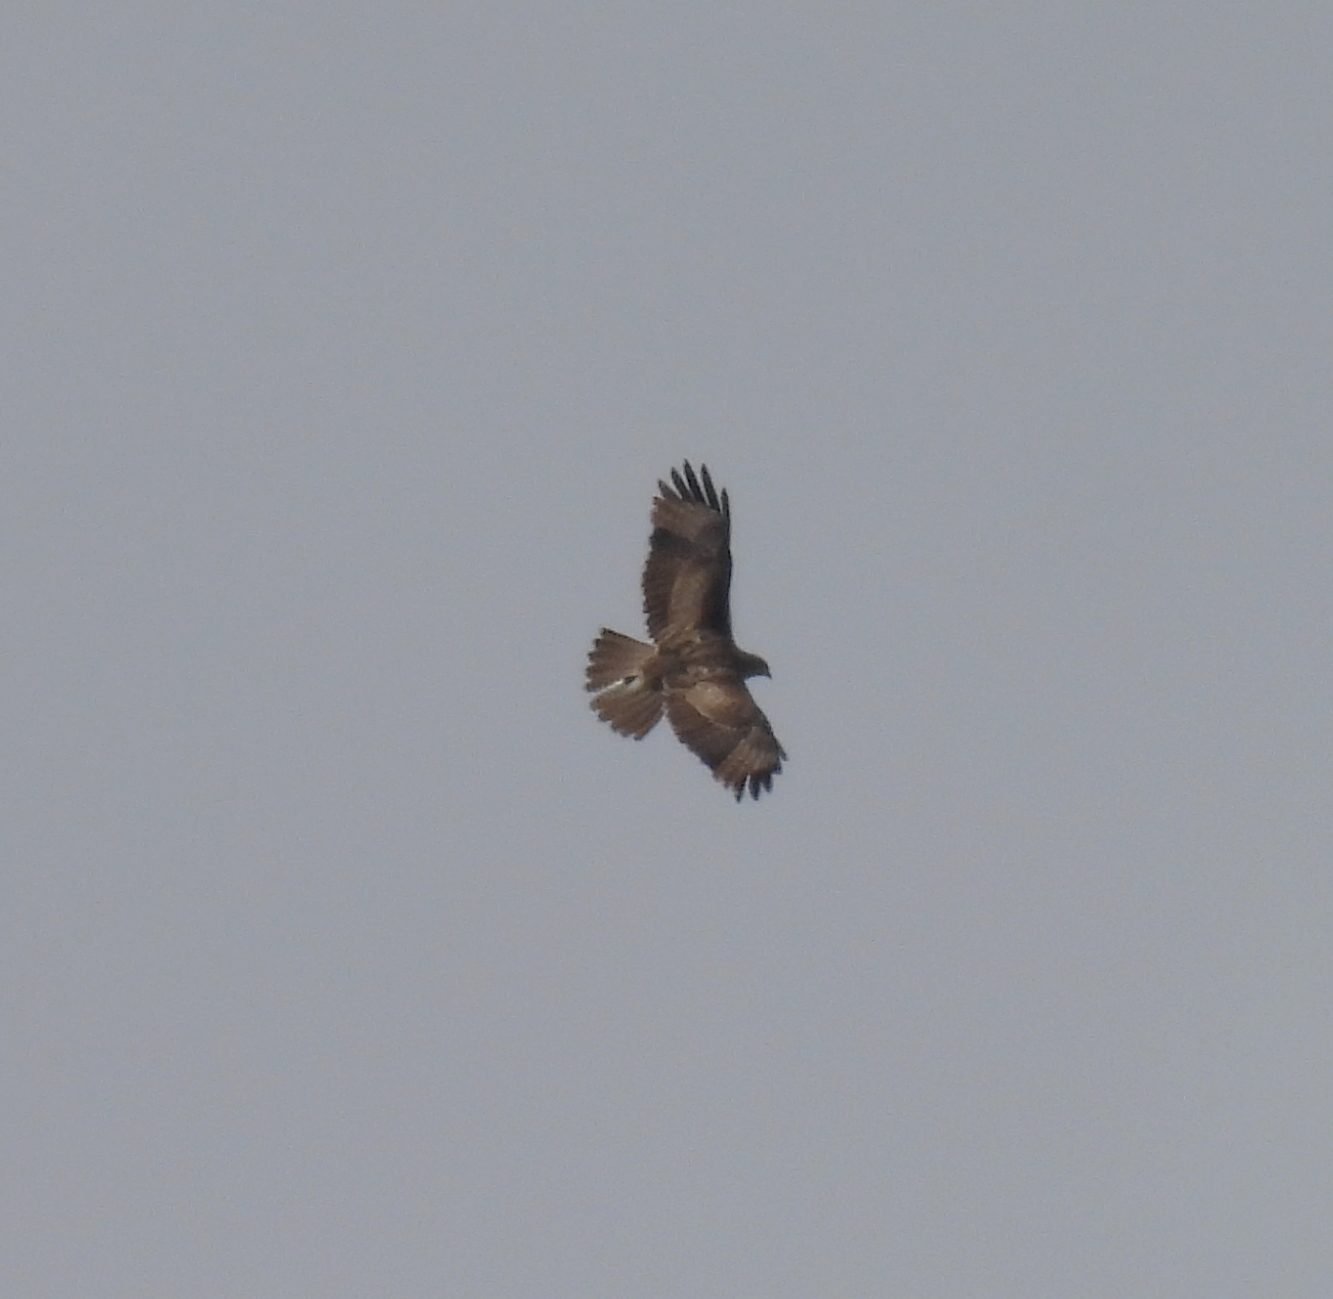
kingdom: Animalia
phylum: Chordata
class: Aves
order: Accipitriformes
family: Accipitridae
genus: Buteo
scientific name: Buteo buteo
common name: Common buzzard
